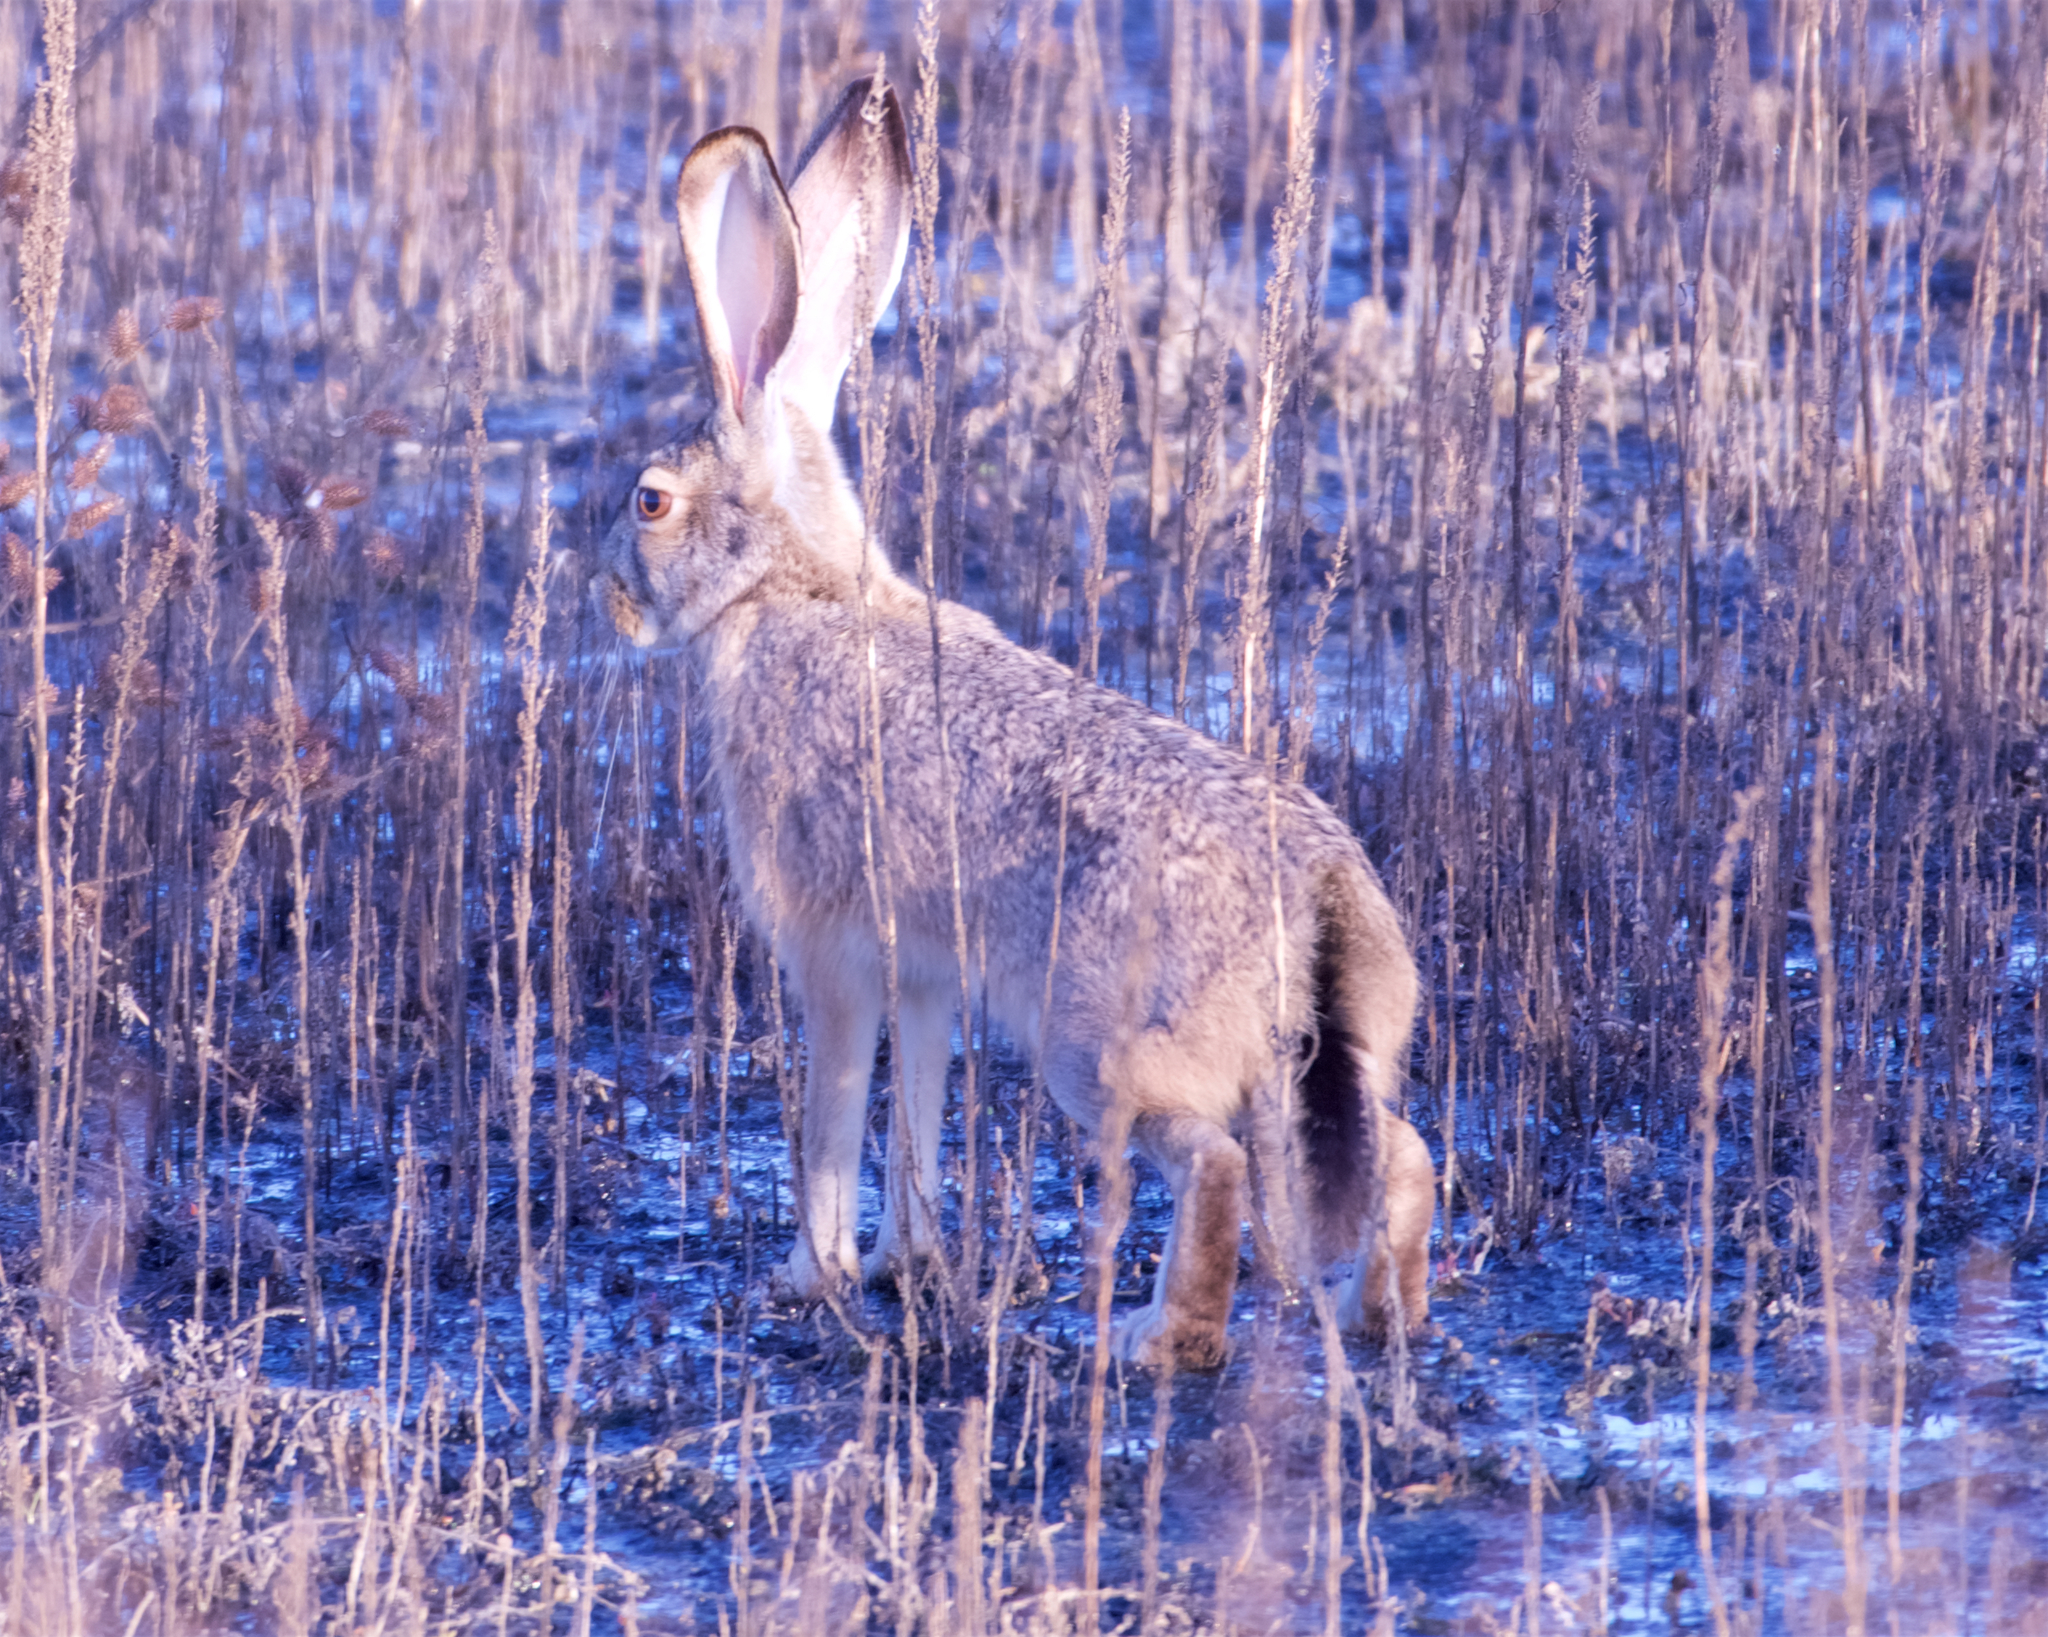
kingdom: Animalia
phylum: Chordata
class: Mammalia
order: Lagomorpha
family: Leporidae
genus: Lepus
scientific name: Lepus californicus
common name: Black-tailed jackrabbit
